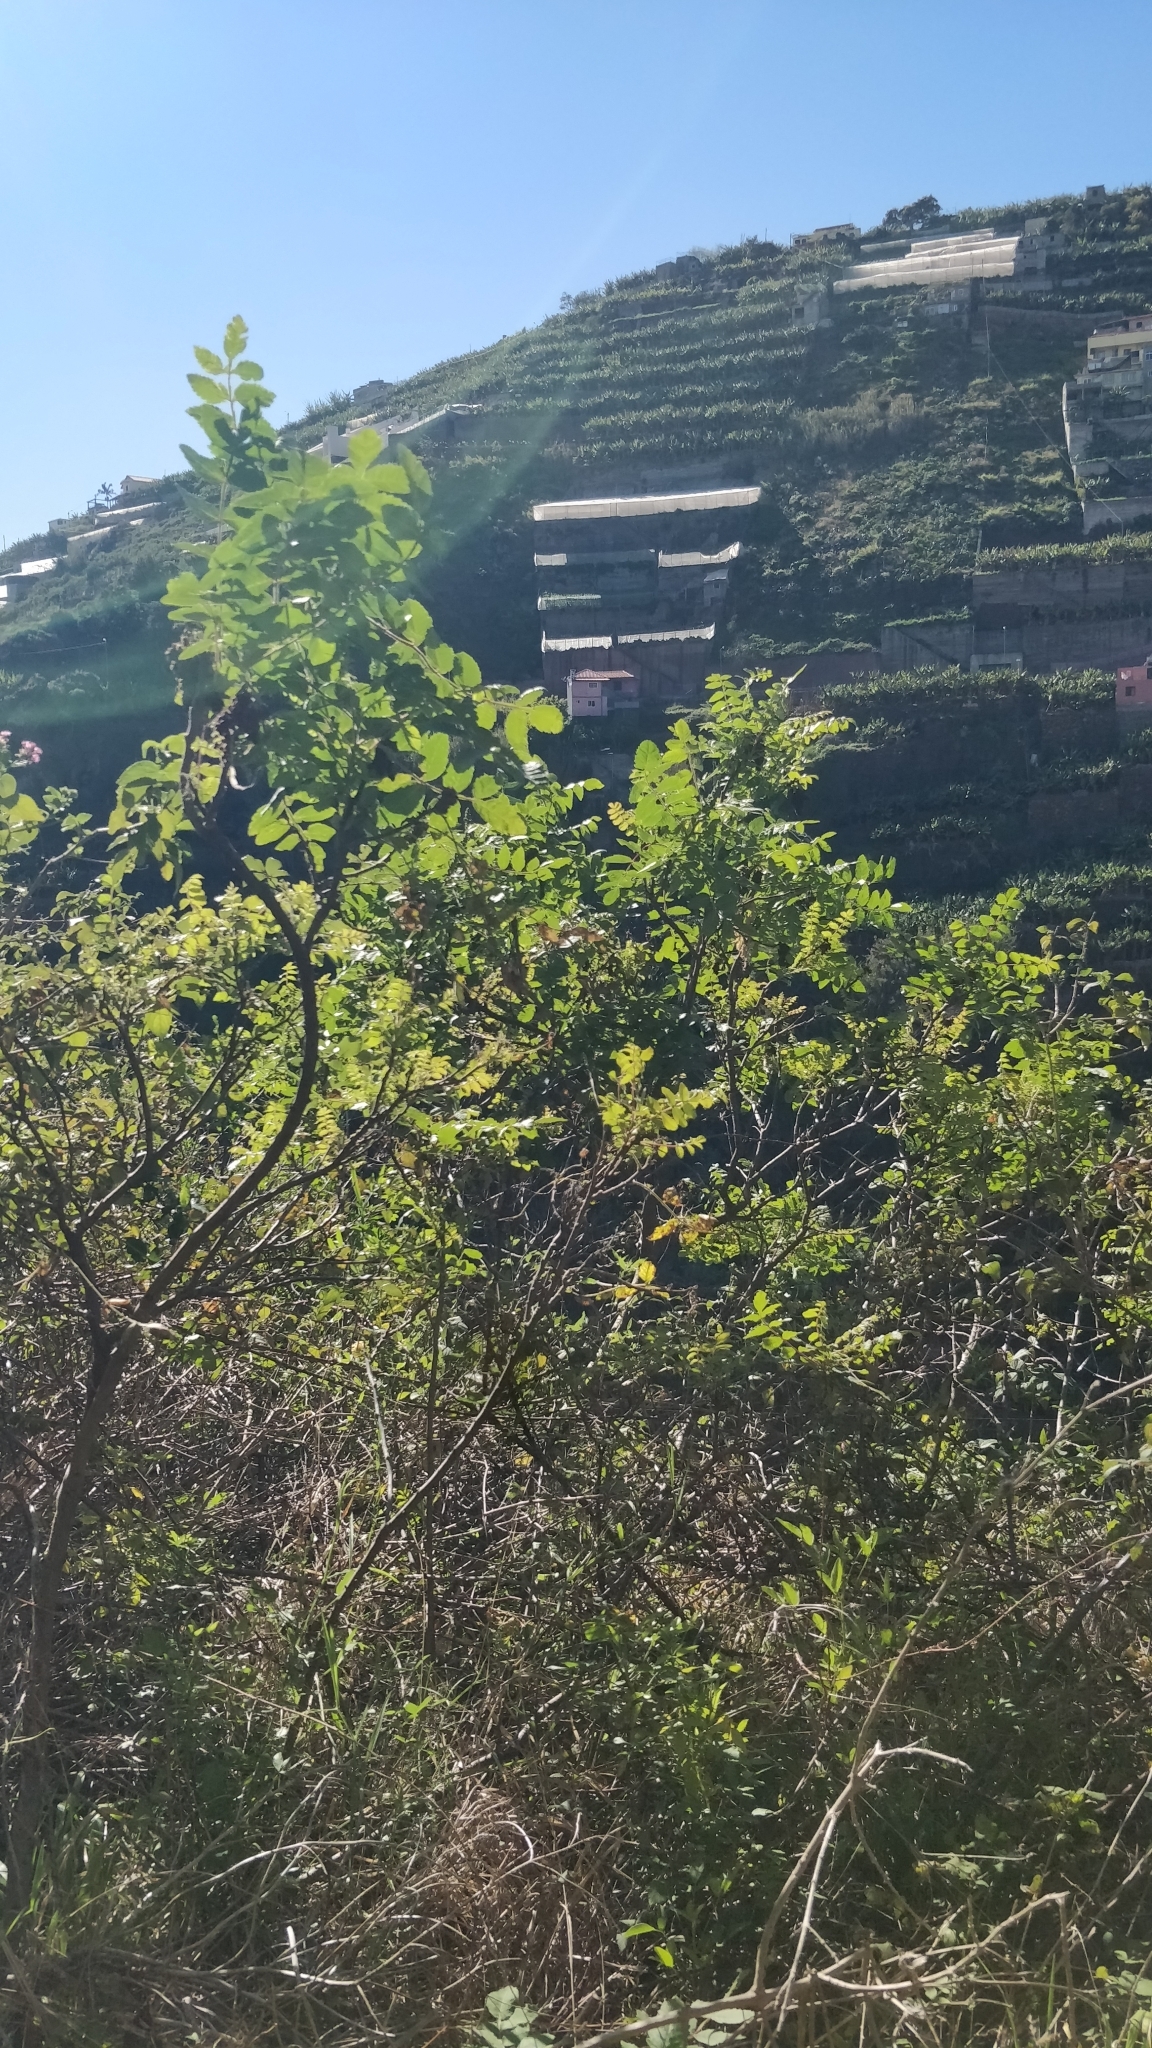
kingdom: Plantae
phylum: Tracheophyta
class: Magnoliopsida
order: Sapindales
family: Anacardiaceae
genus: Rhus
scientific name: Rhus coriaria
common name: Tanner's sumach
